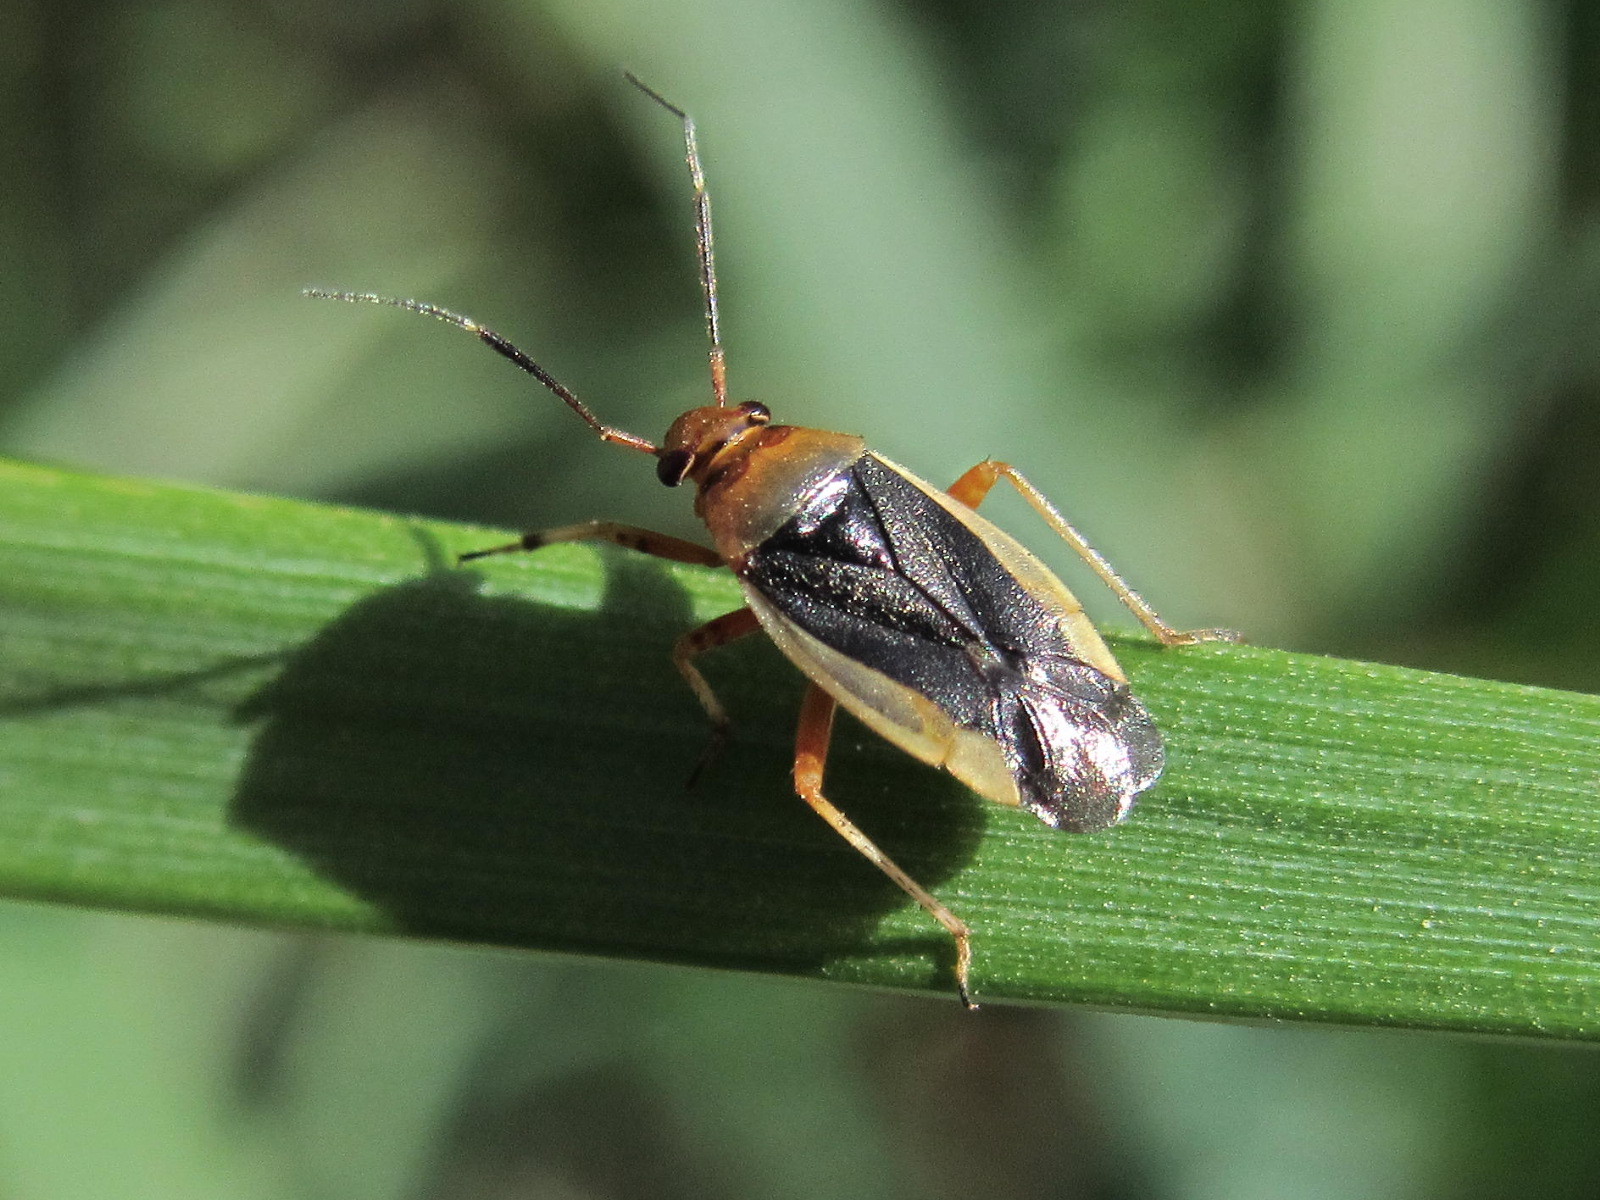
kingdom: Animalia
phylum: Arthropoda
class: Insecta
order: Hemiptera
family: Miridae
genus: Capsus
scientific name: Capsus cinctus
